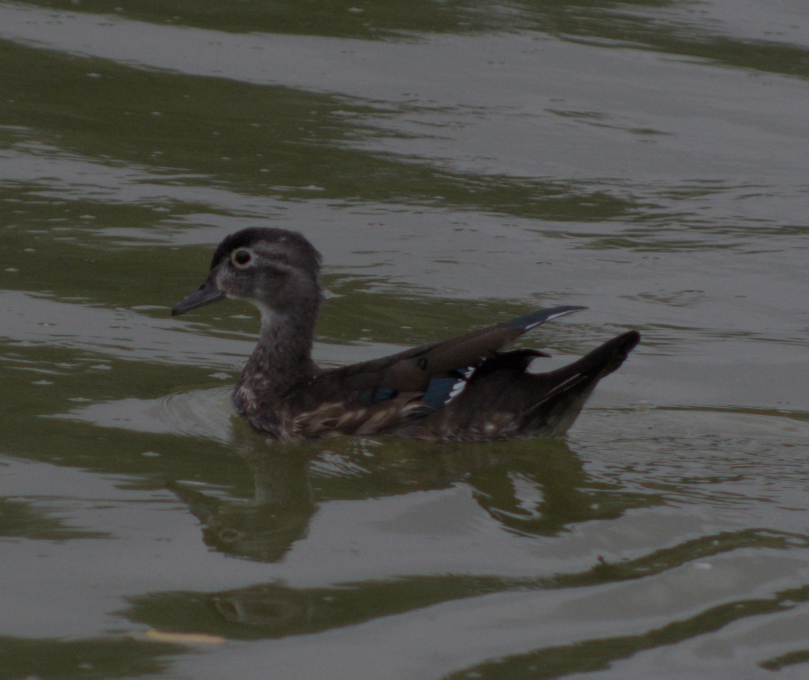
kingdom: Animalia
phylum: Chordata
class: Aves
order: Anseriformes
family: Anatidae
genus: Aix
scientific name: Aix sponsa
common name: Wood duck
